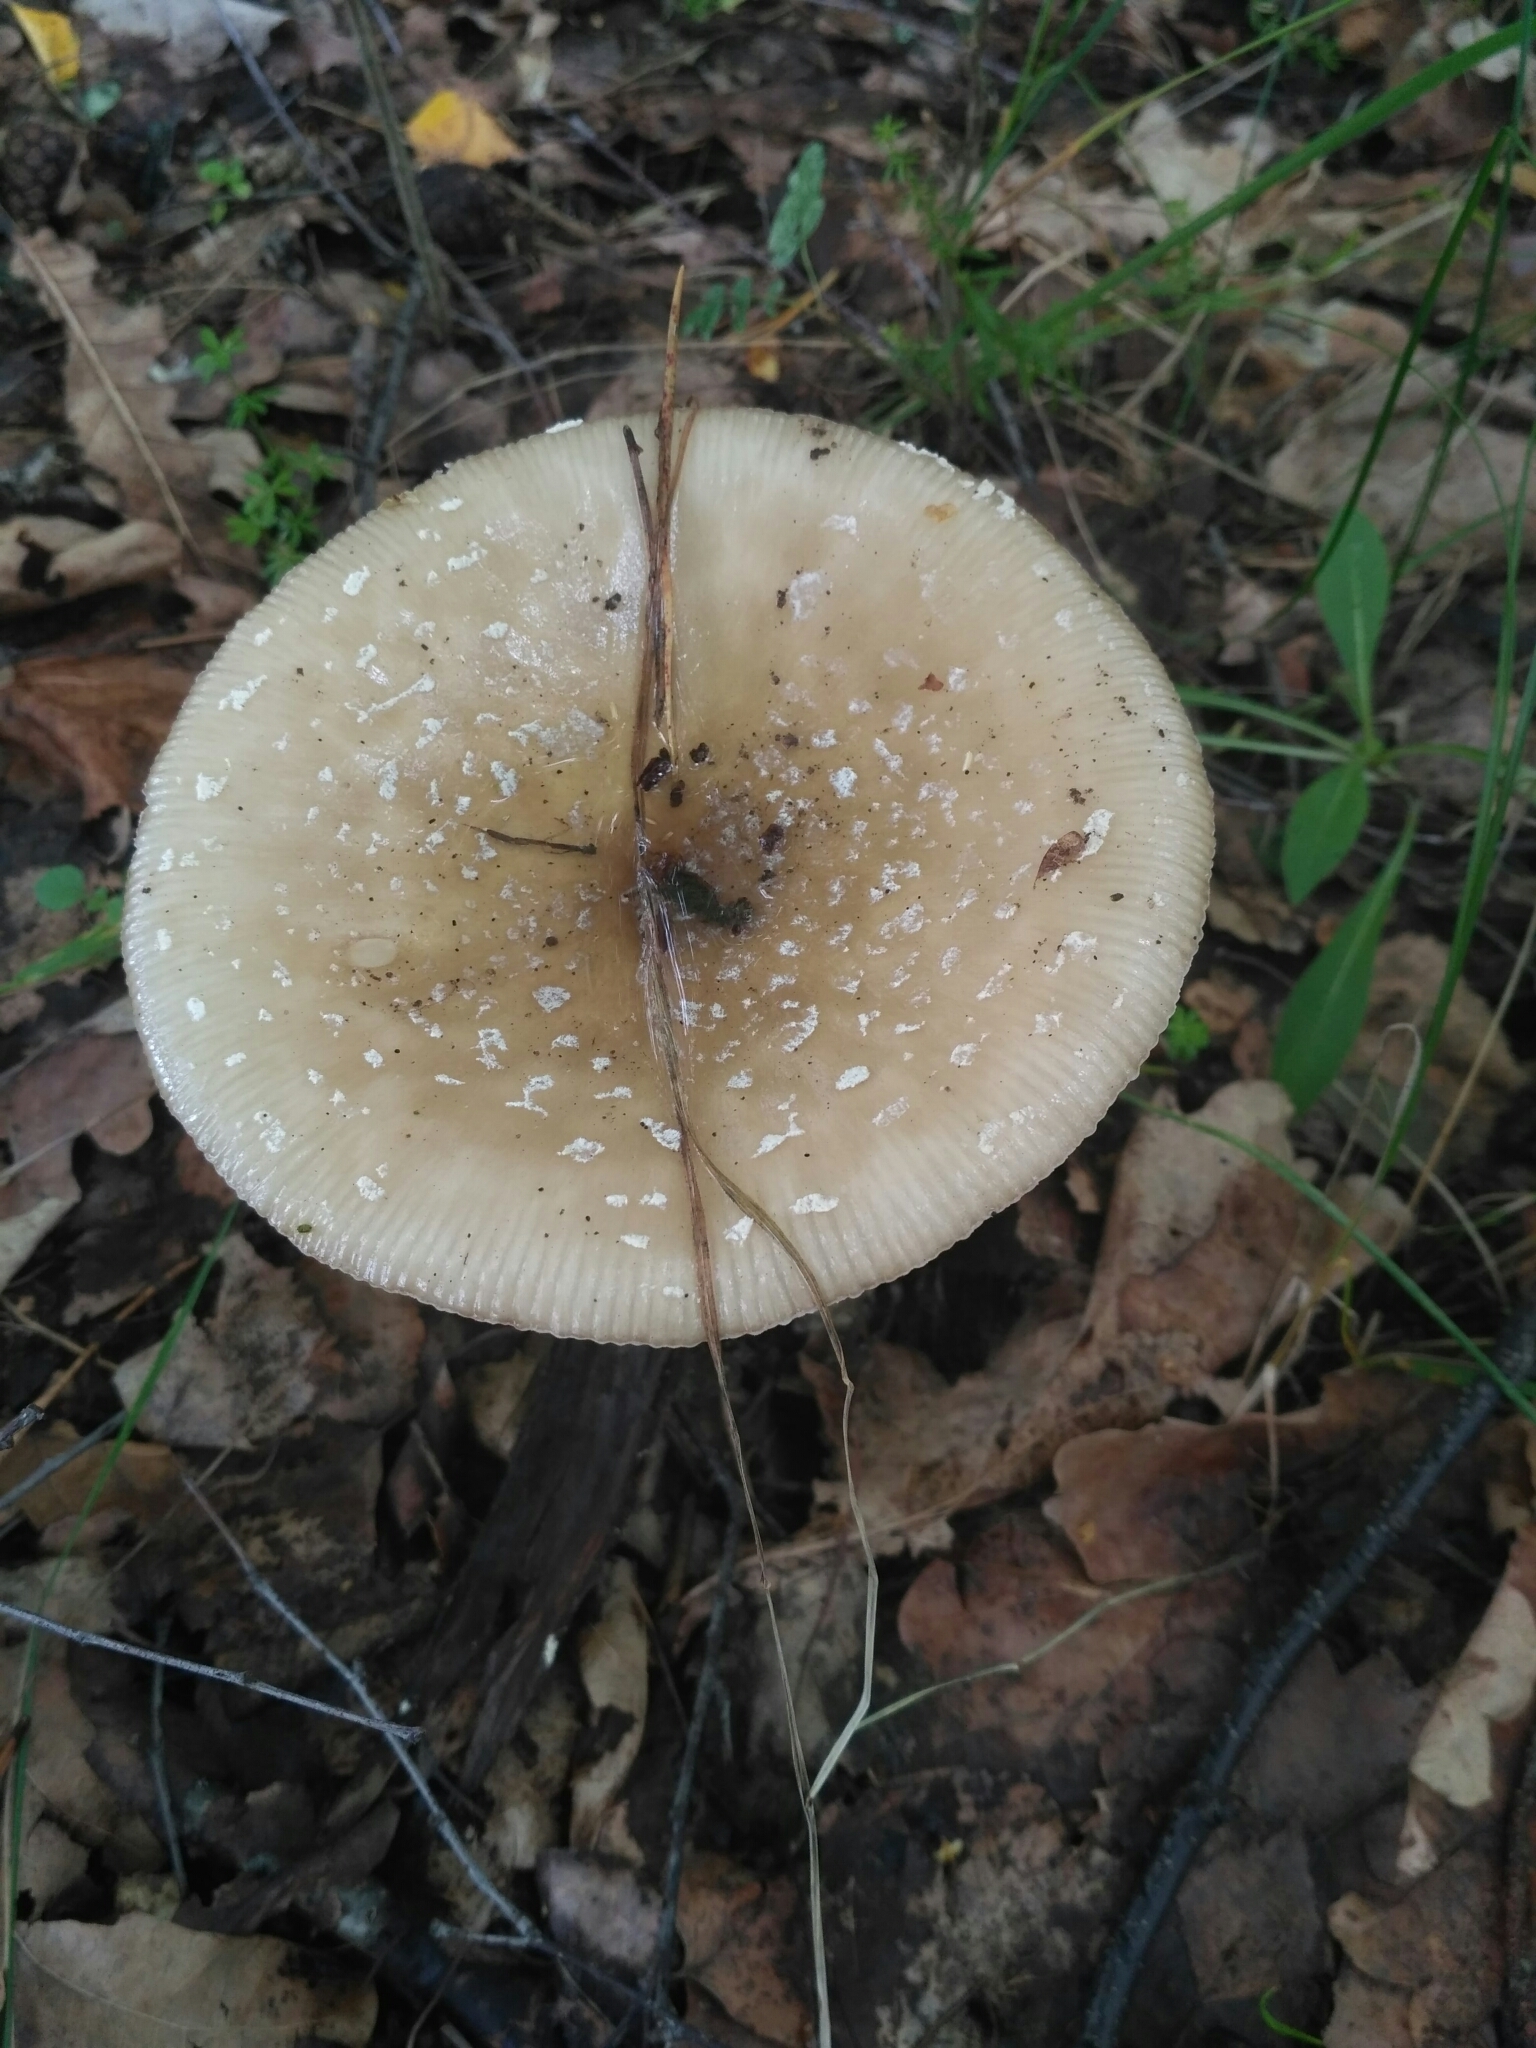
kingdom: Fungi
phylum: Basidiomycota
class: Agaricomycetes
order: Agaricales
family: Amanitaceae
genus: Amanita
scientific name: Amanita pantherina
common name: Panthercap
